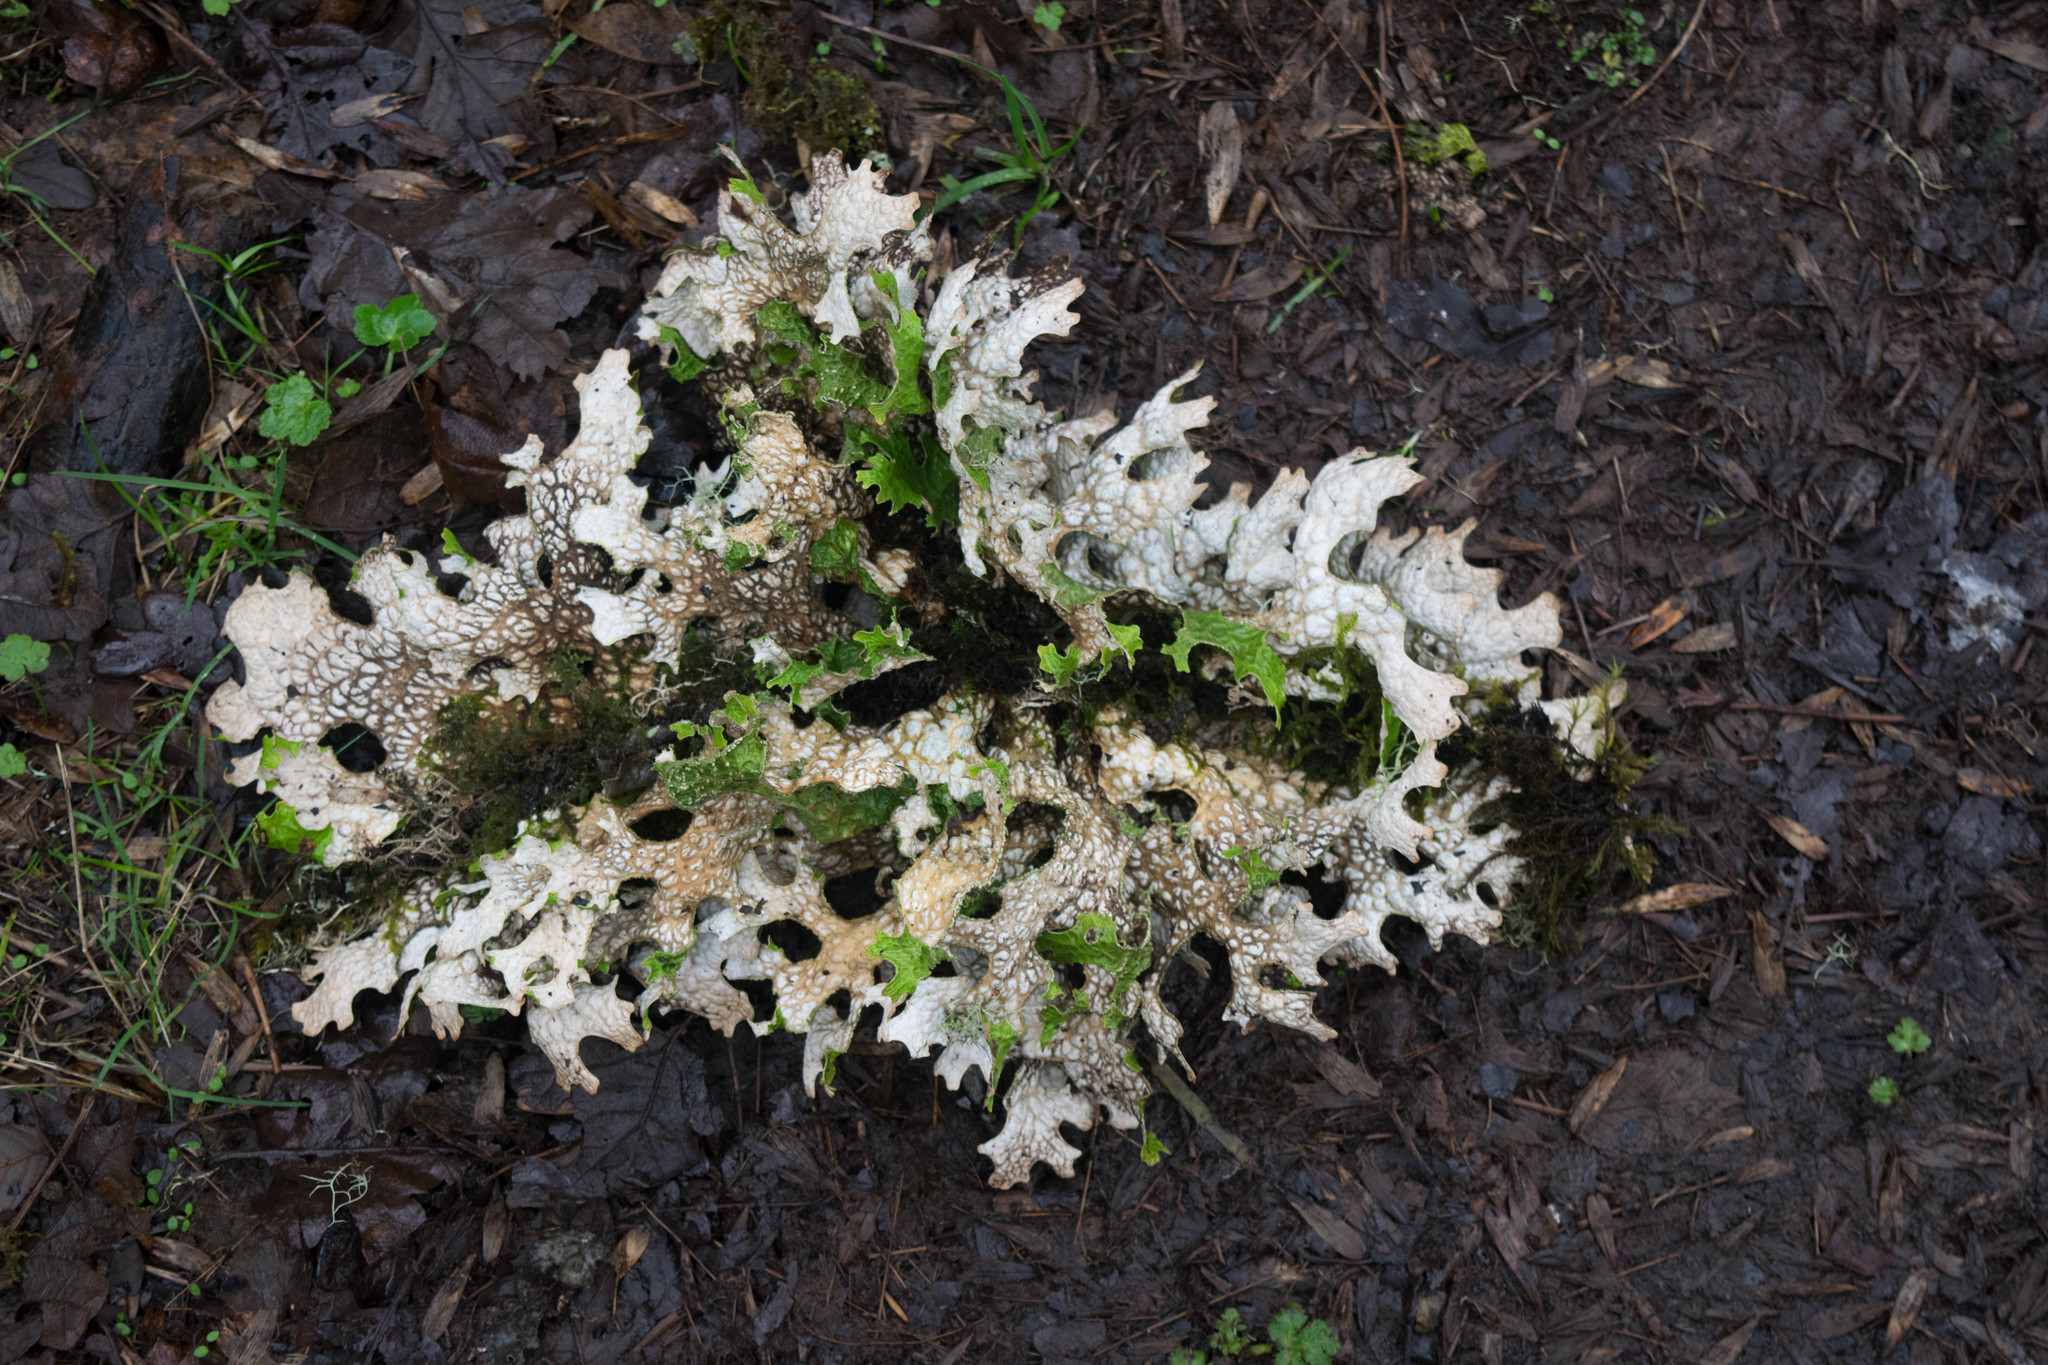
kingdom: Fungi
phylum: Ascomycota
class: Lecanoromycetes
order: Peltigerales
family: Lobariaceae
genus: Lobaria
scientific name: Lobaria pulmonaria
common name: Lungwort
